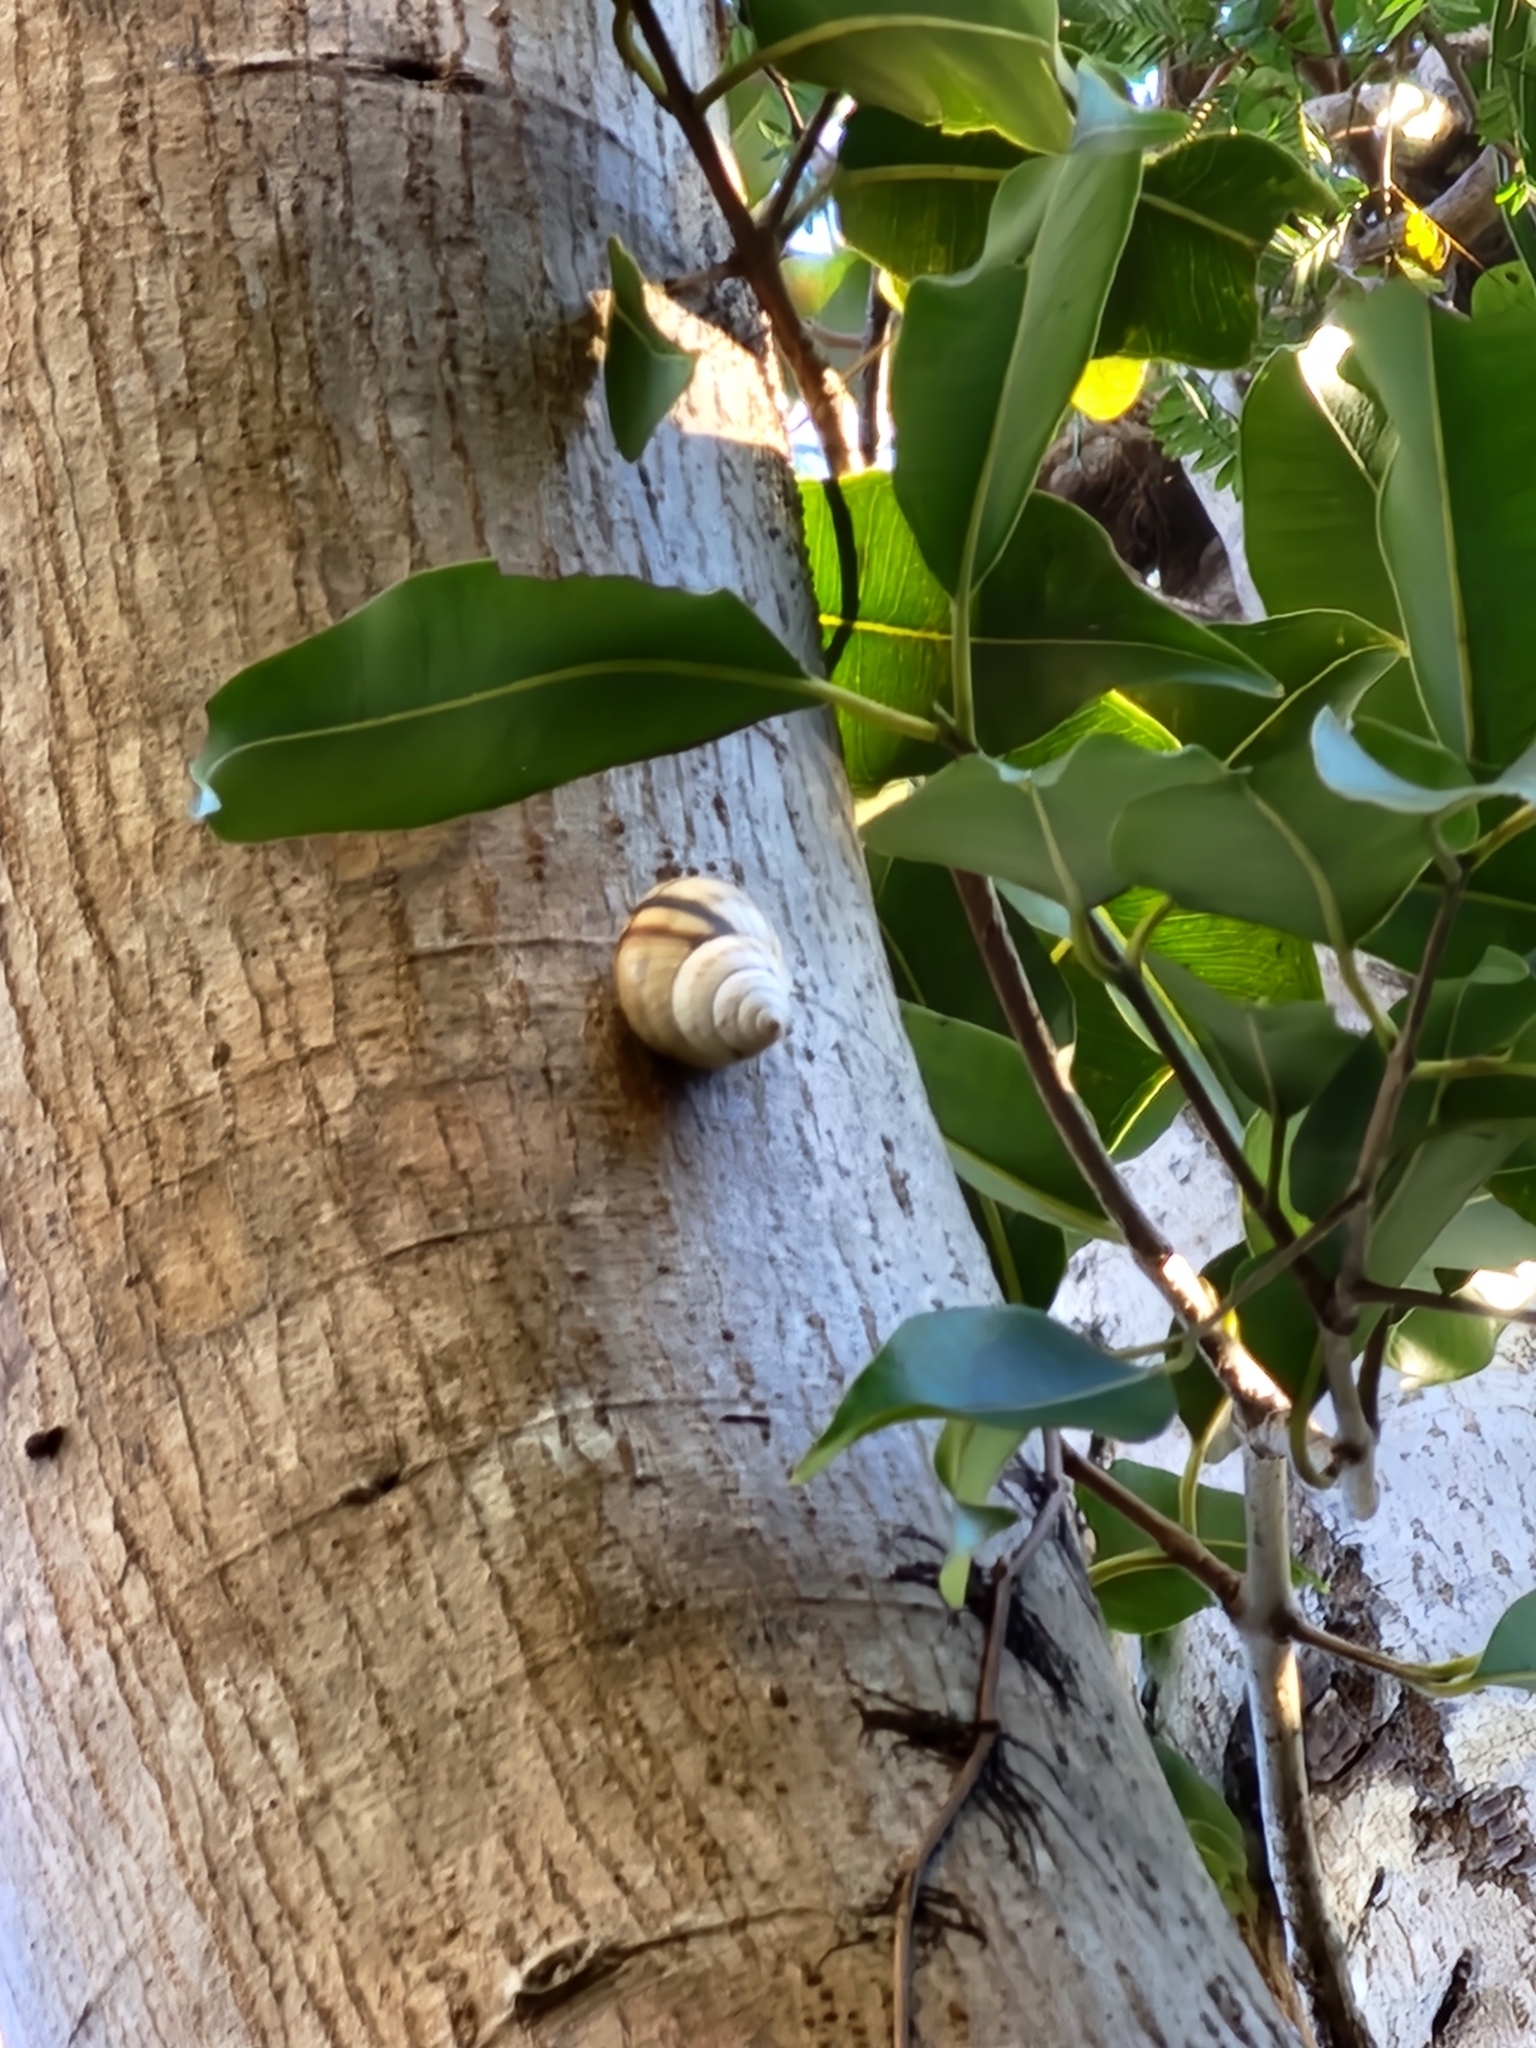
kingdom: Animalia
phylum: Mollusca
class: Gastropoda
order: Stylommatophora
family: Orthalicidae
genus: Orthalicus
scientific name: Orthalicus floridensis
